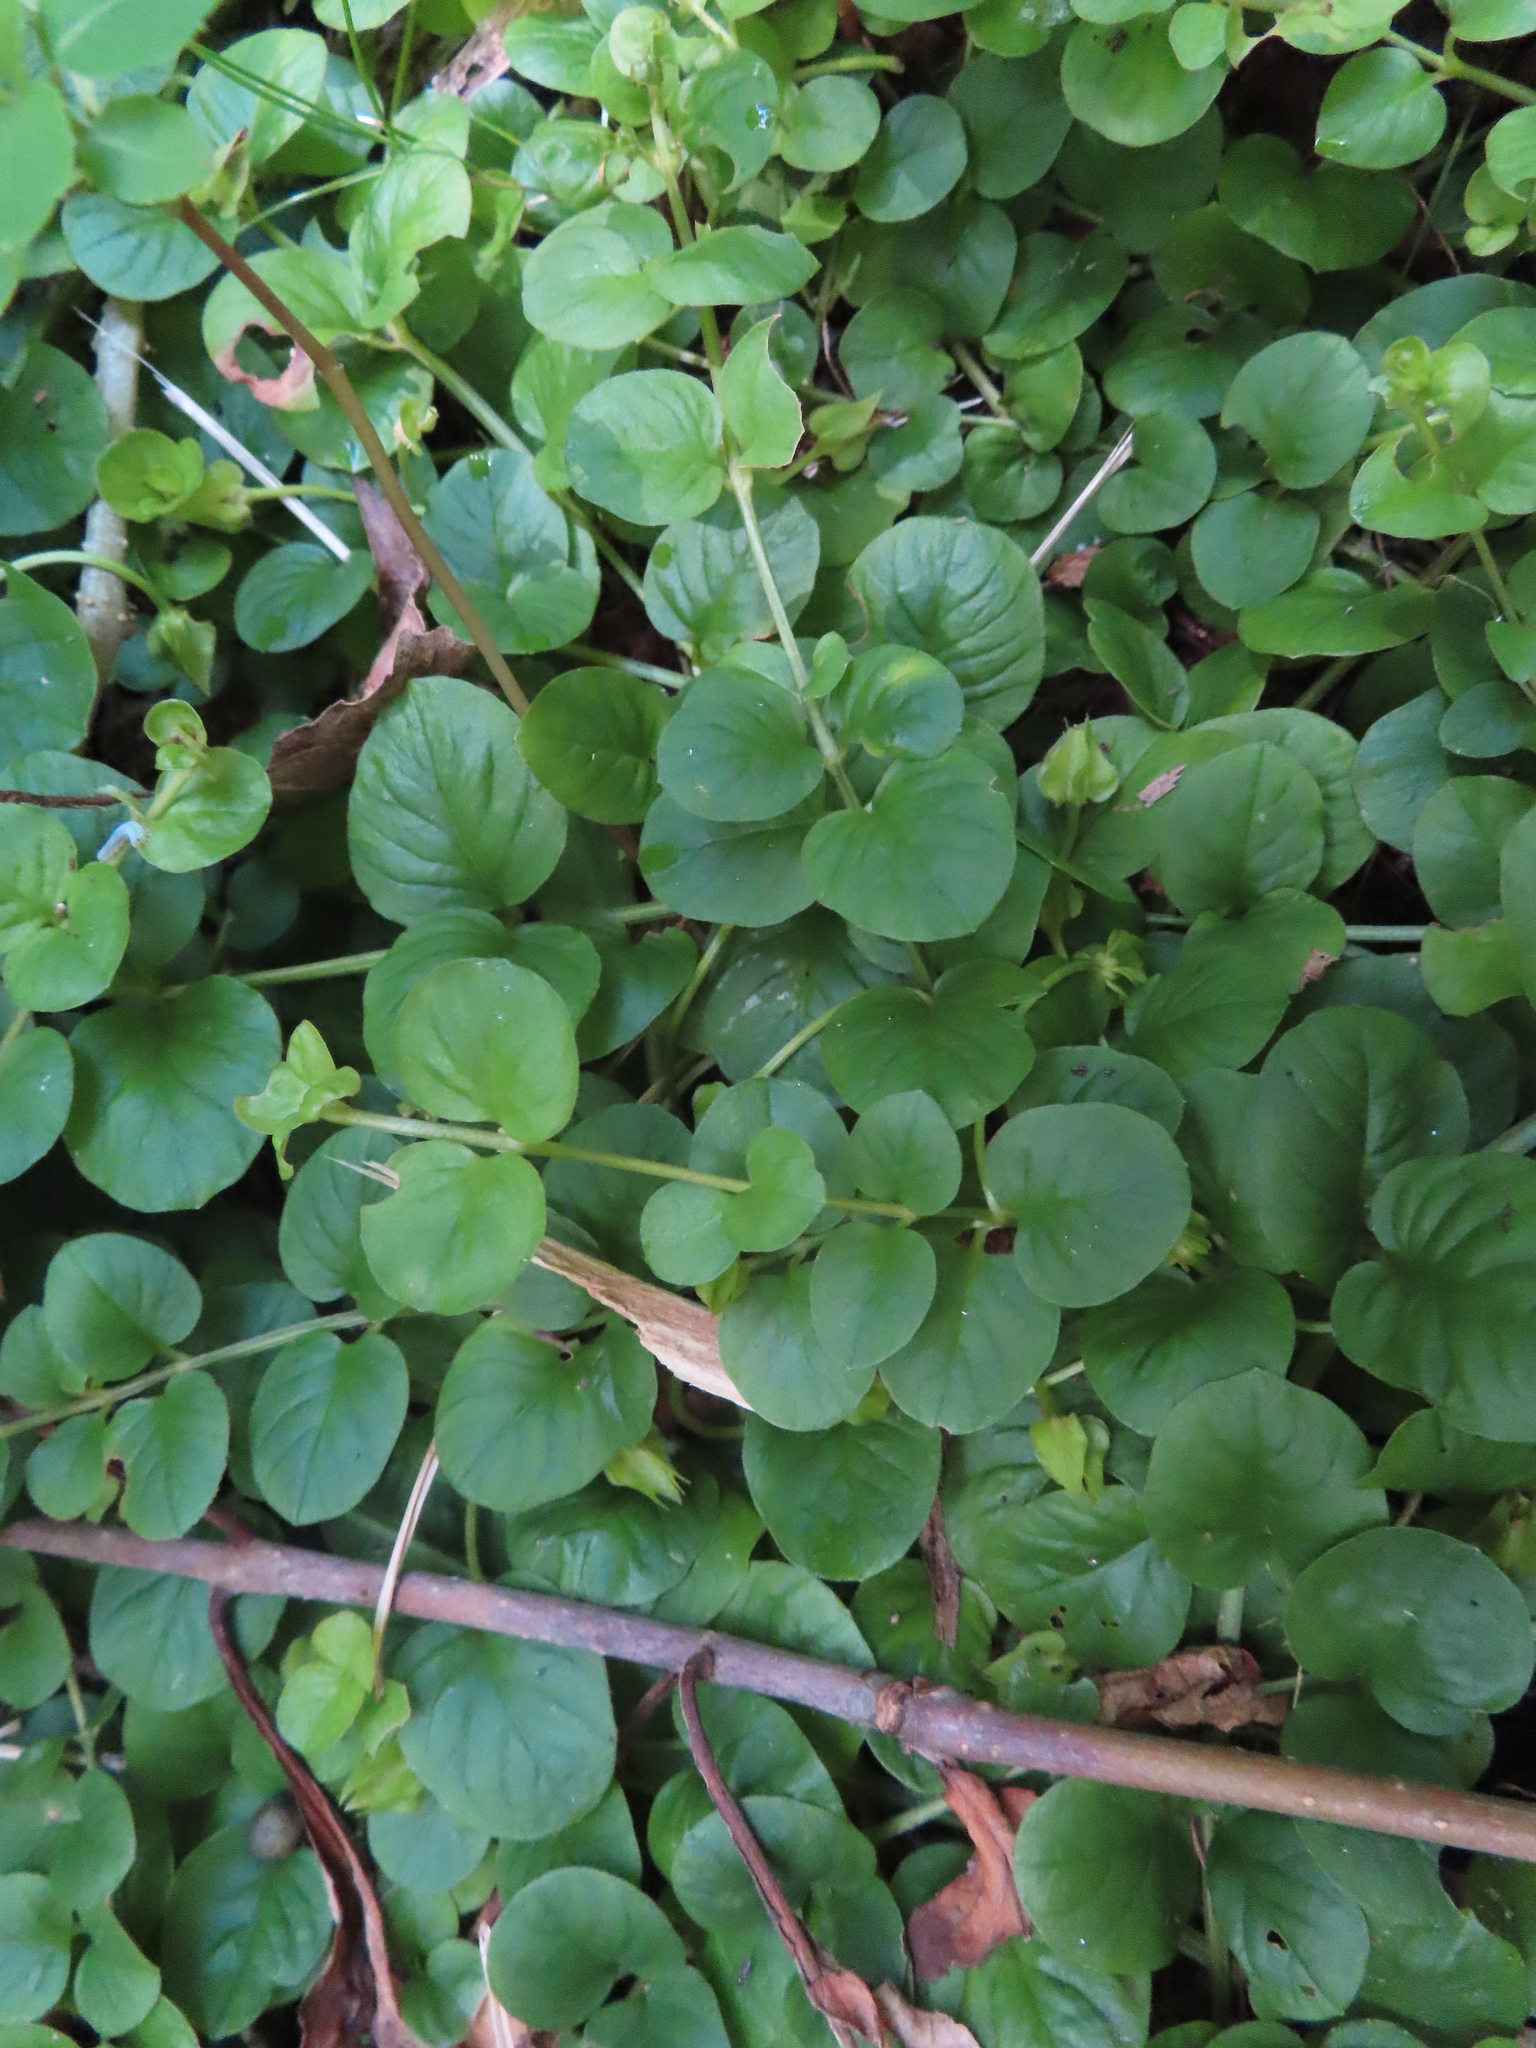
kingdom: Plantae
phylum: Tracheophyta
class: Magnoliopsida
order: Ericales
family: Primulaceae
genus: Lysimachia
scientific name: Lysimachia nummularia
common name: Moneywort
